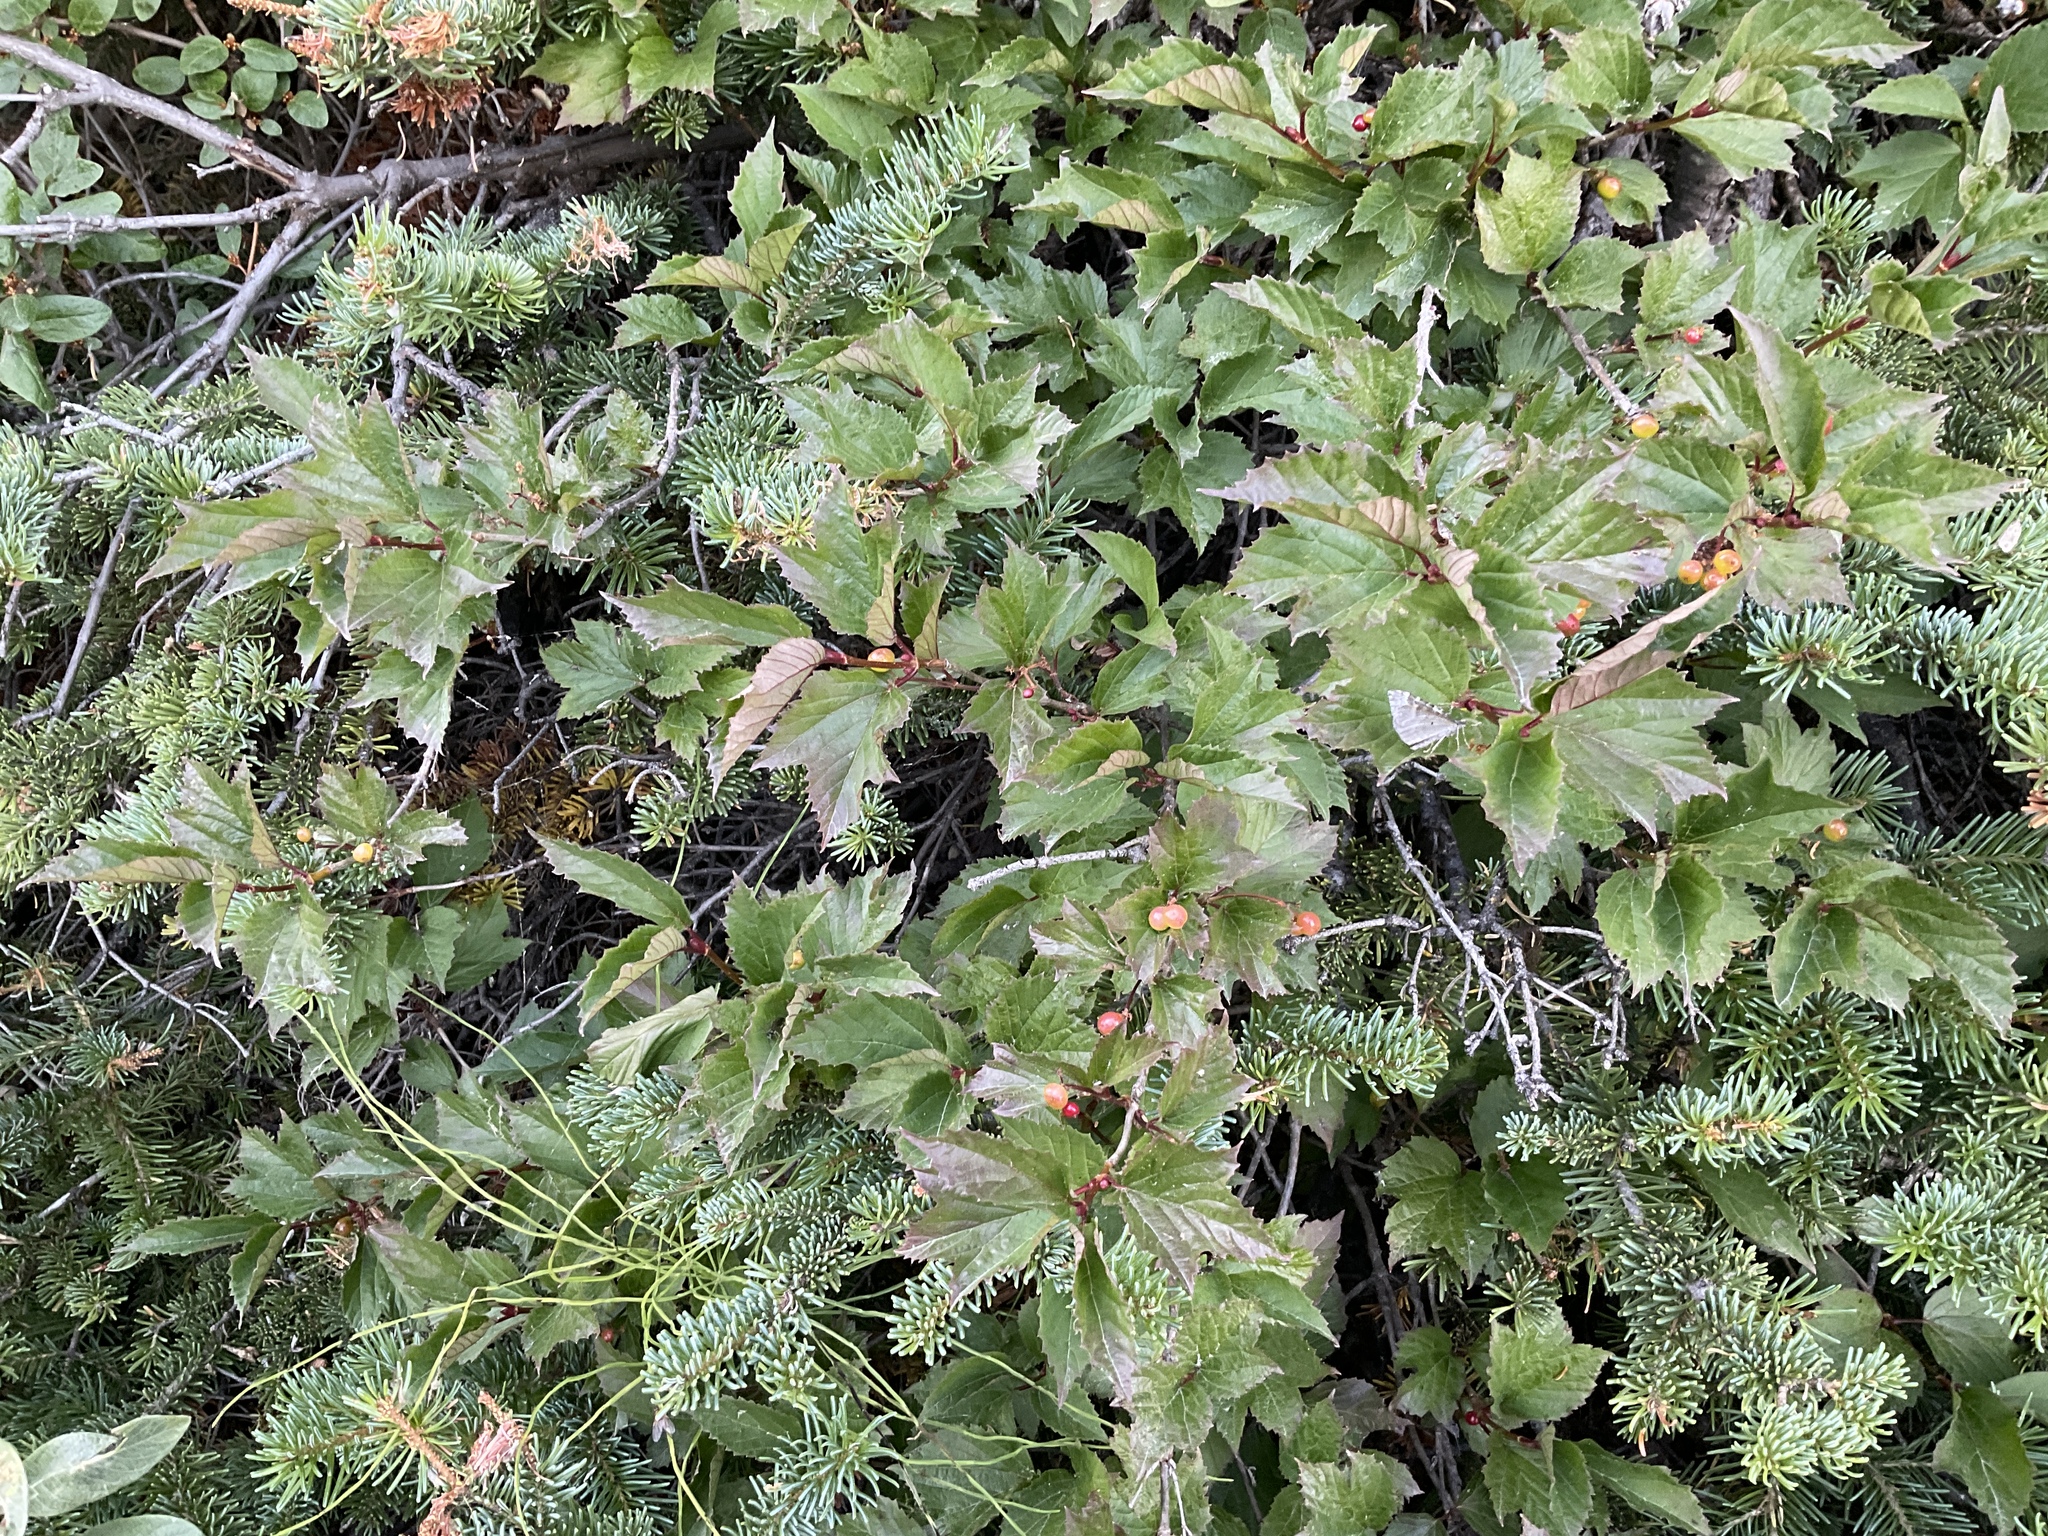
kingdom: Plantae
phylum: Tracheophyta
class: Magnoliopsida
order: Dipsacales
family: Viburnaceae
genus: Viburnum
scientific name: Viburnum edule
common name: Mooseberry
